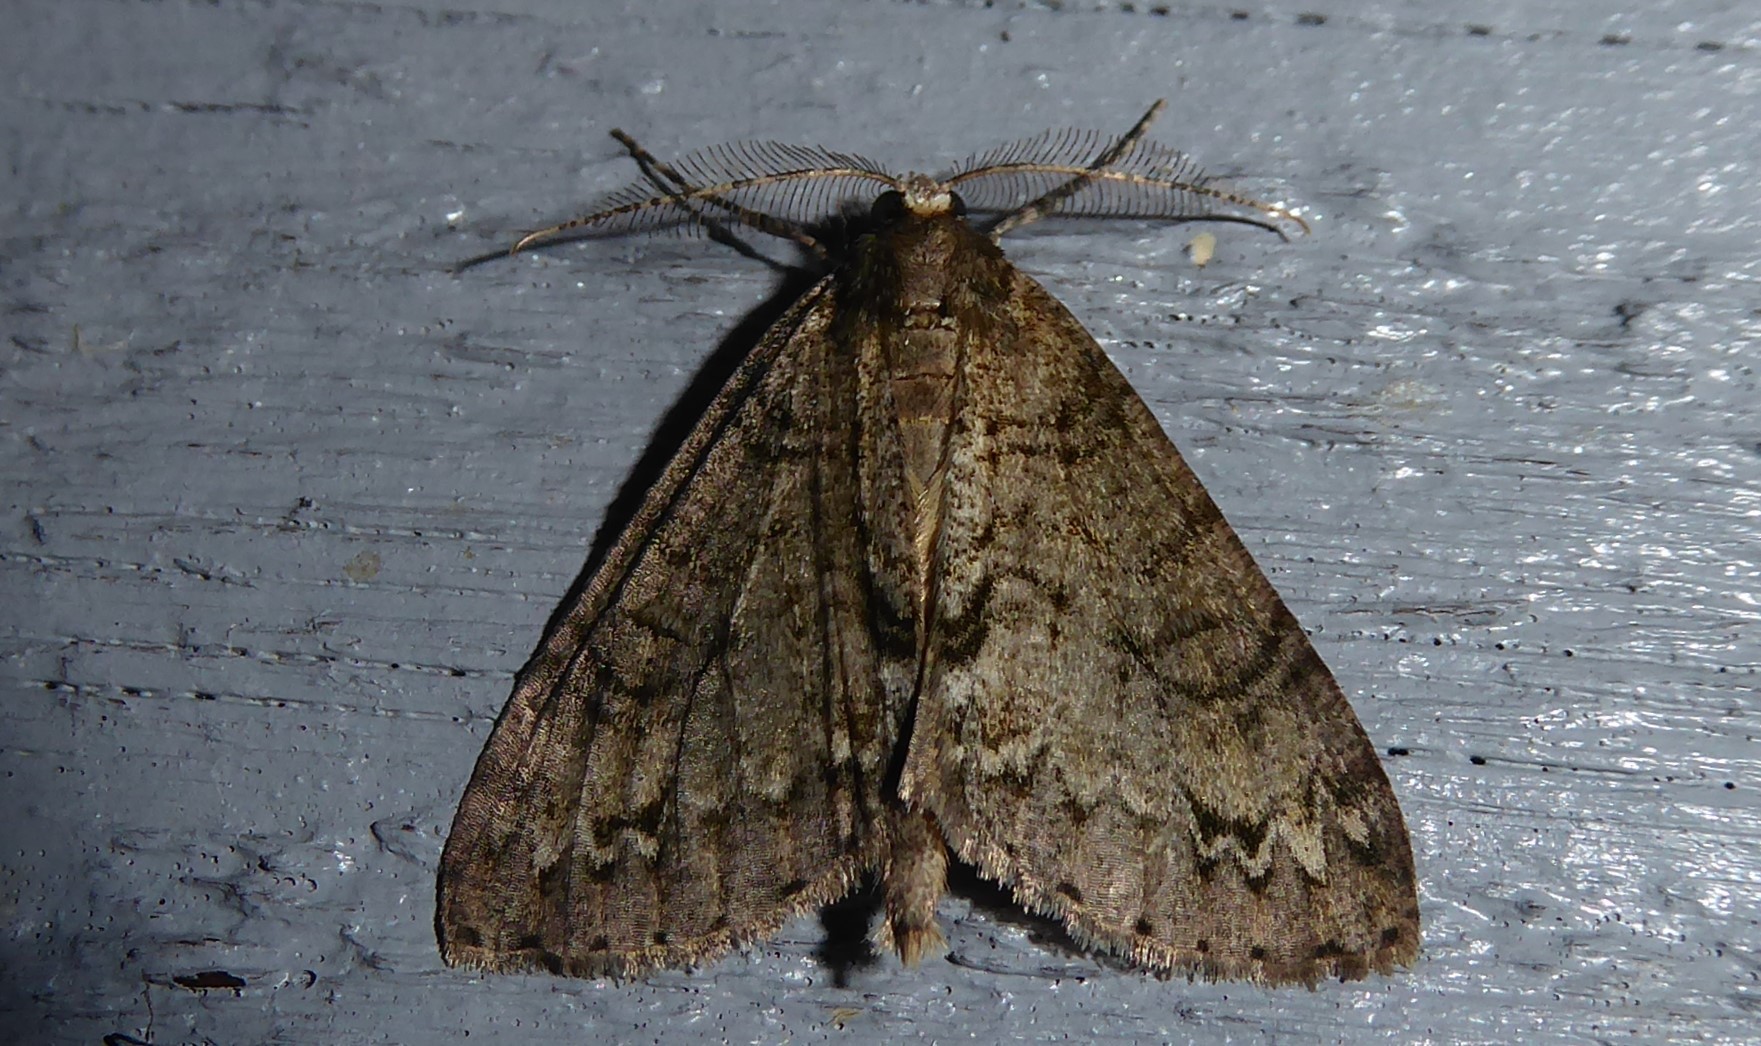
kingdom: Animalia
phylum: Arthropoda
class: Insecta
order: Lepidoptera
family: Geometridae
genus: Pseudocoremia
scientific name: Pseudocoremia suavis
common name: Common forest looper
